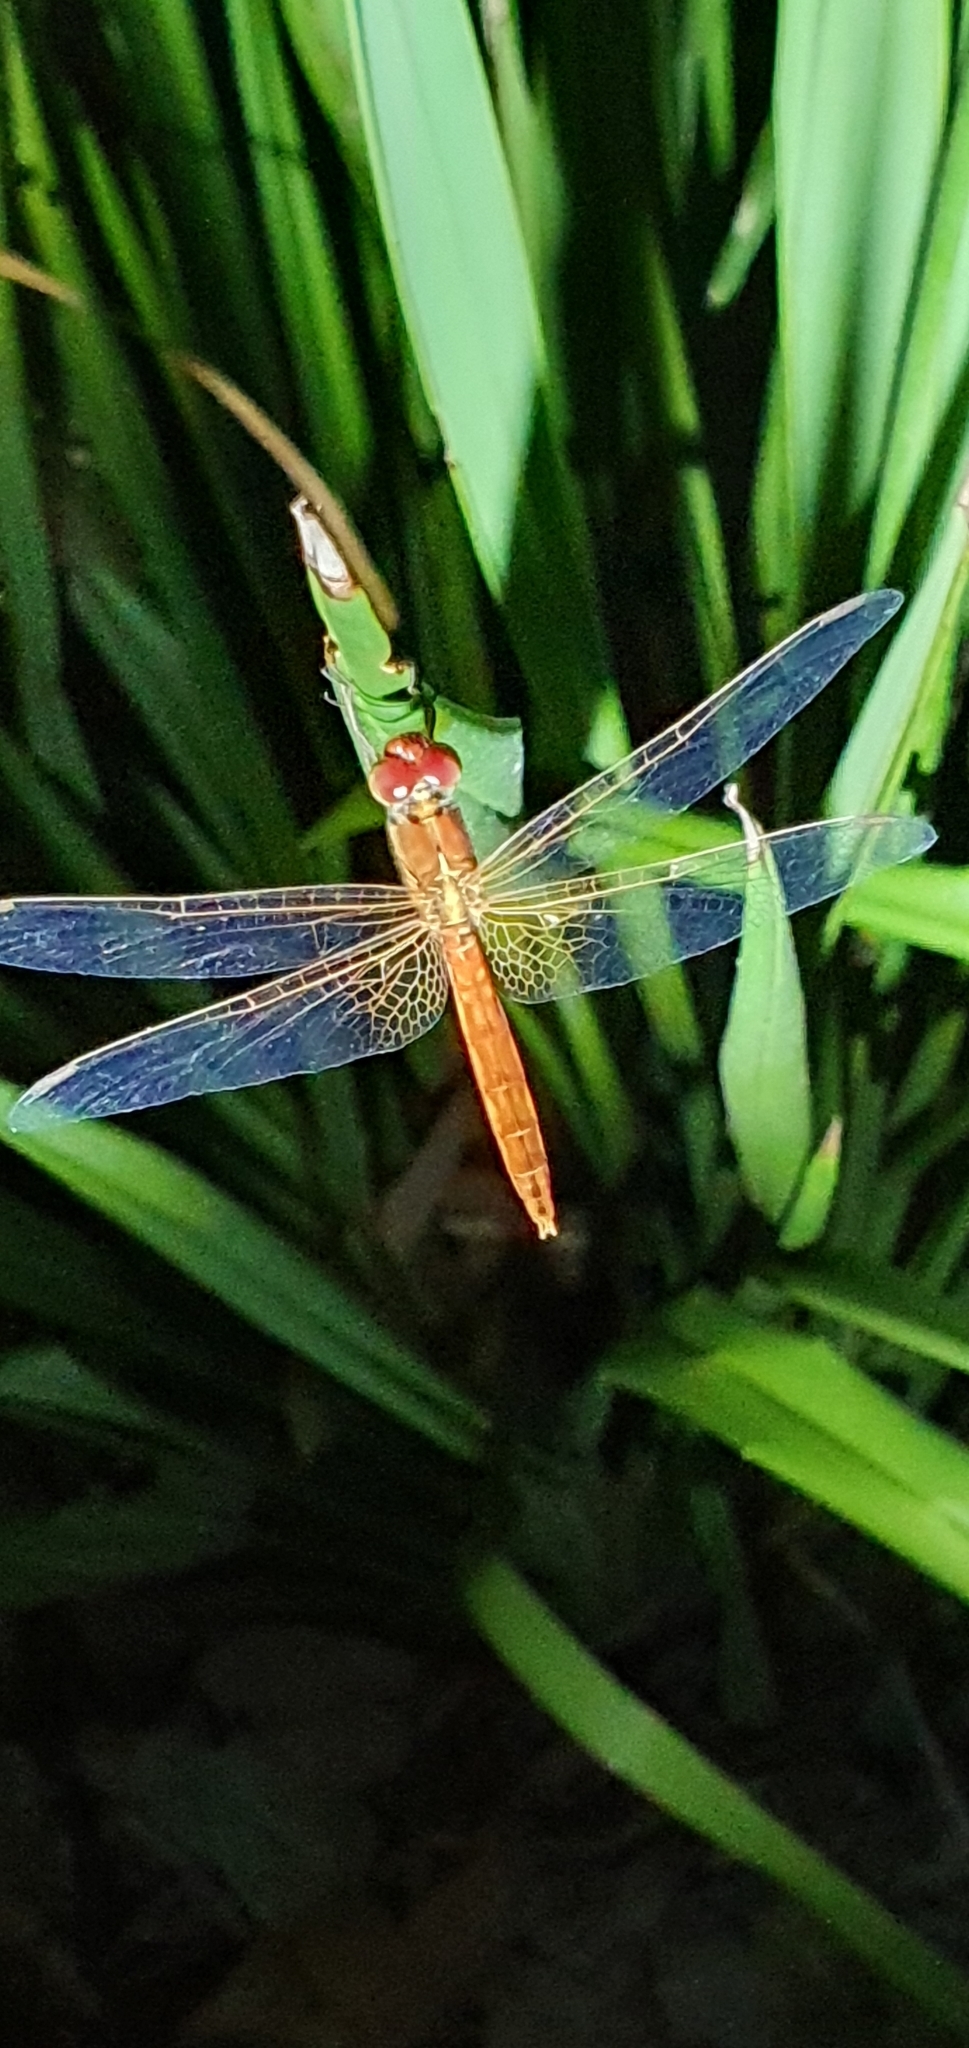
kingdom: Animalia
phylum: Arthropoda
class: Insecta
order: Odonata
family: Libellulidae
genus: Diplacodes
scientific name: Diplacodes haematodes
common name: Scarlet percher
